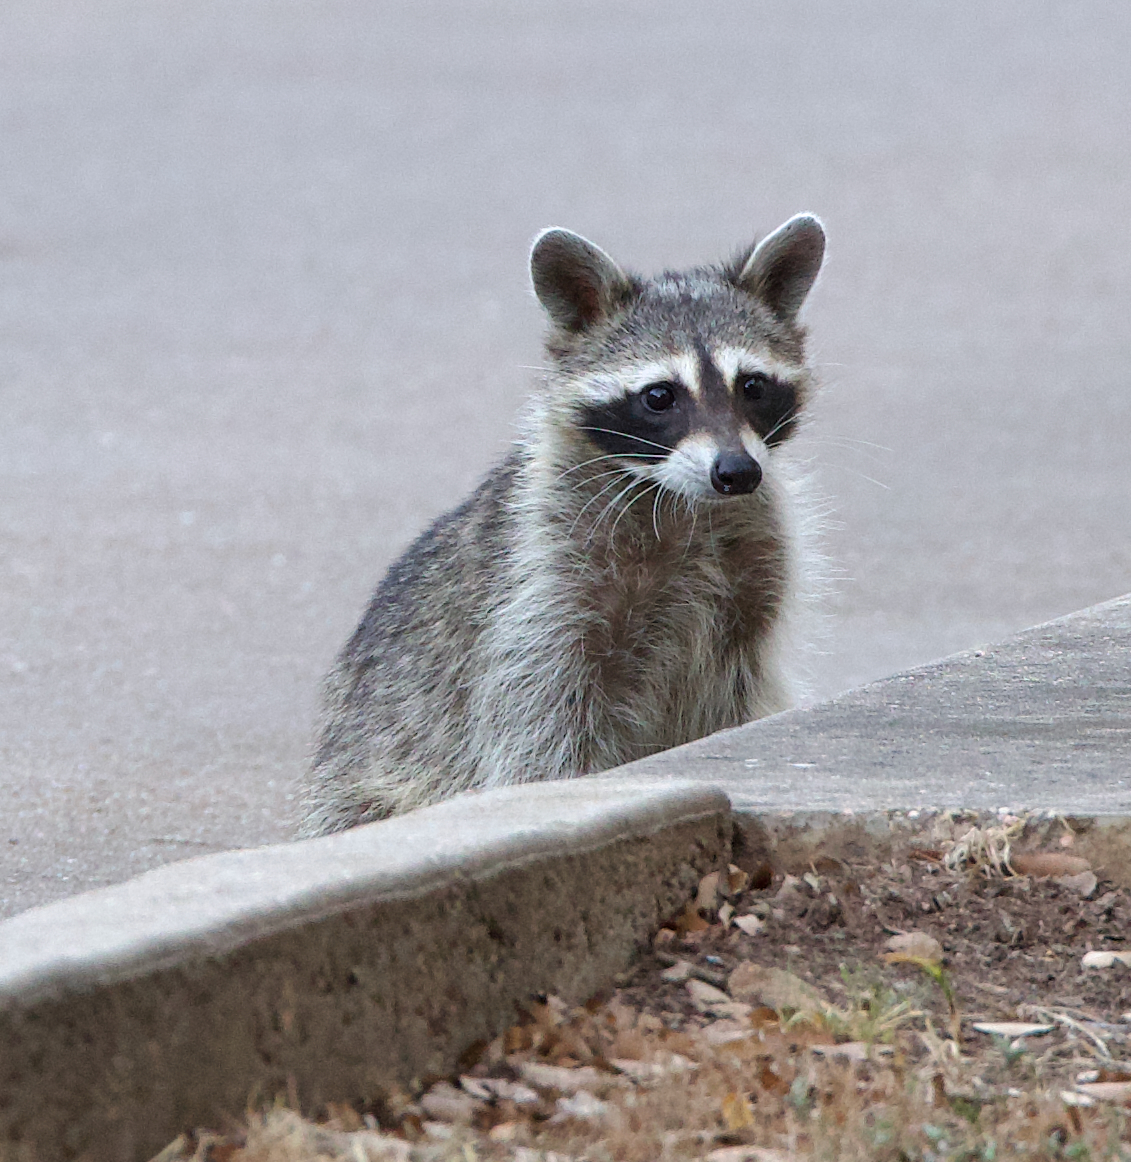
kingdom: Animalia
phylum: Chordata
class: Mammalia
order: Carnivora
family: Procyonidae
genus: Procyon
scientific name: Procyon lotor
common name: Raccoon
